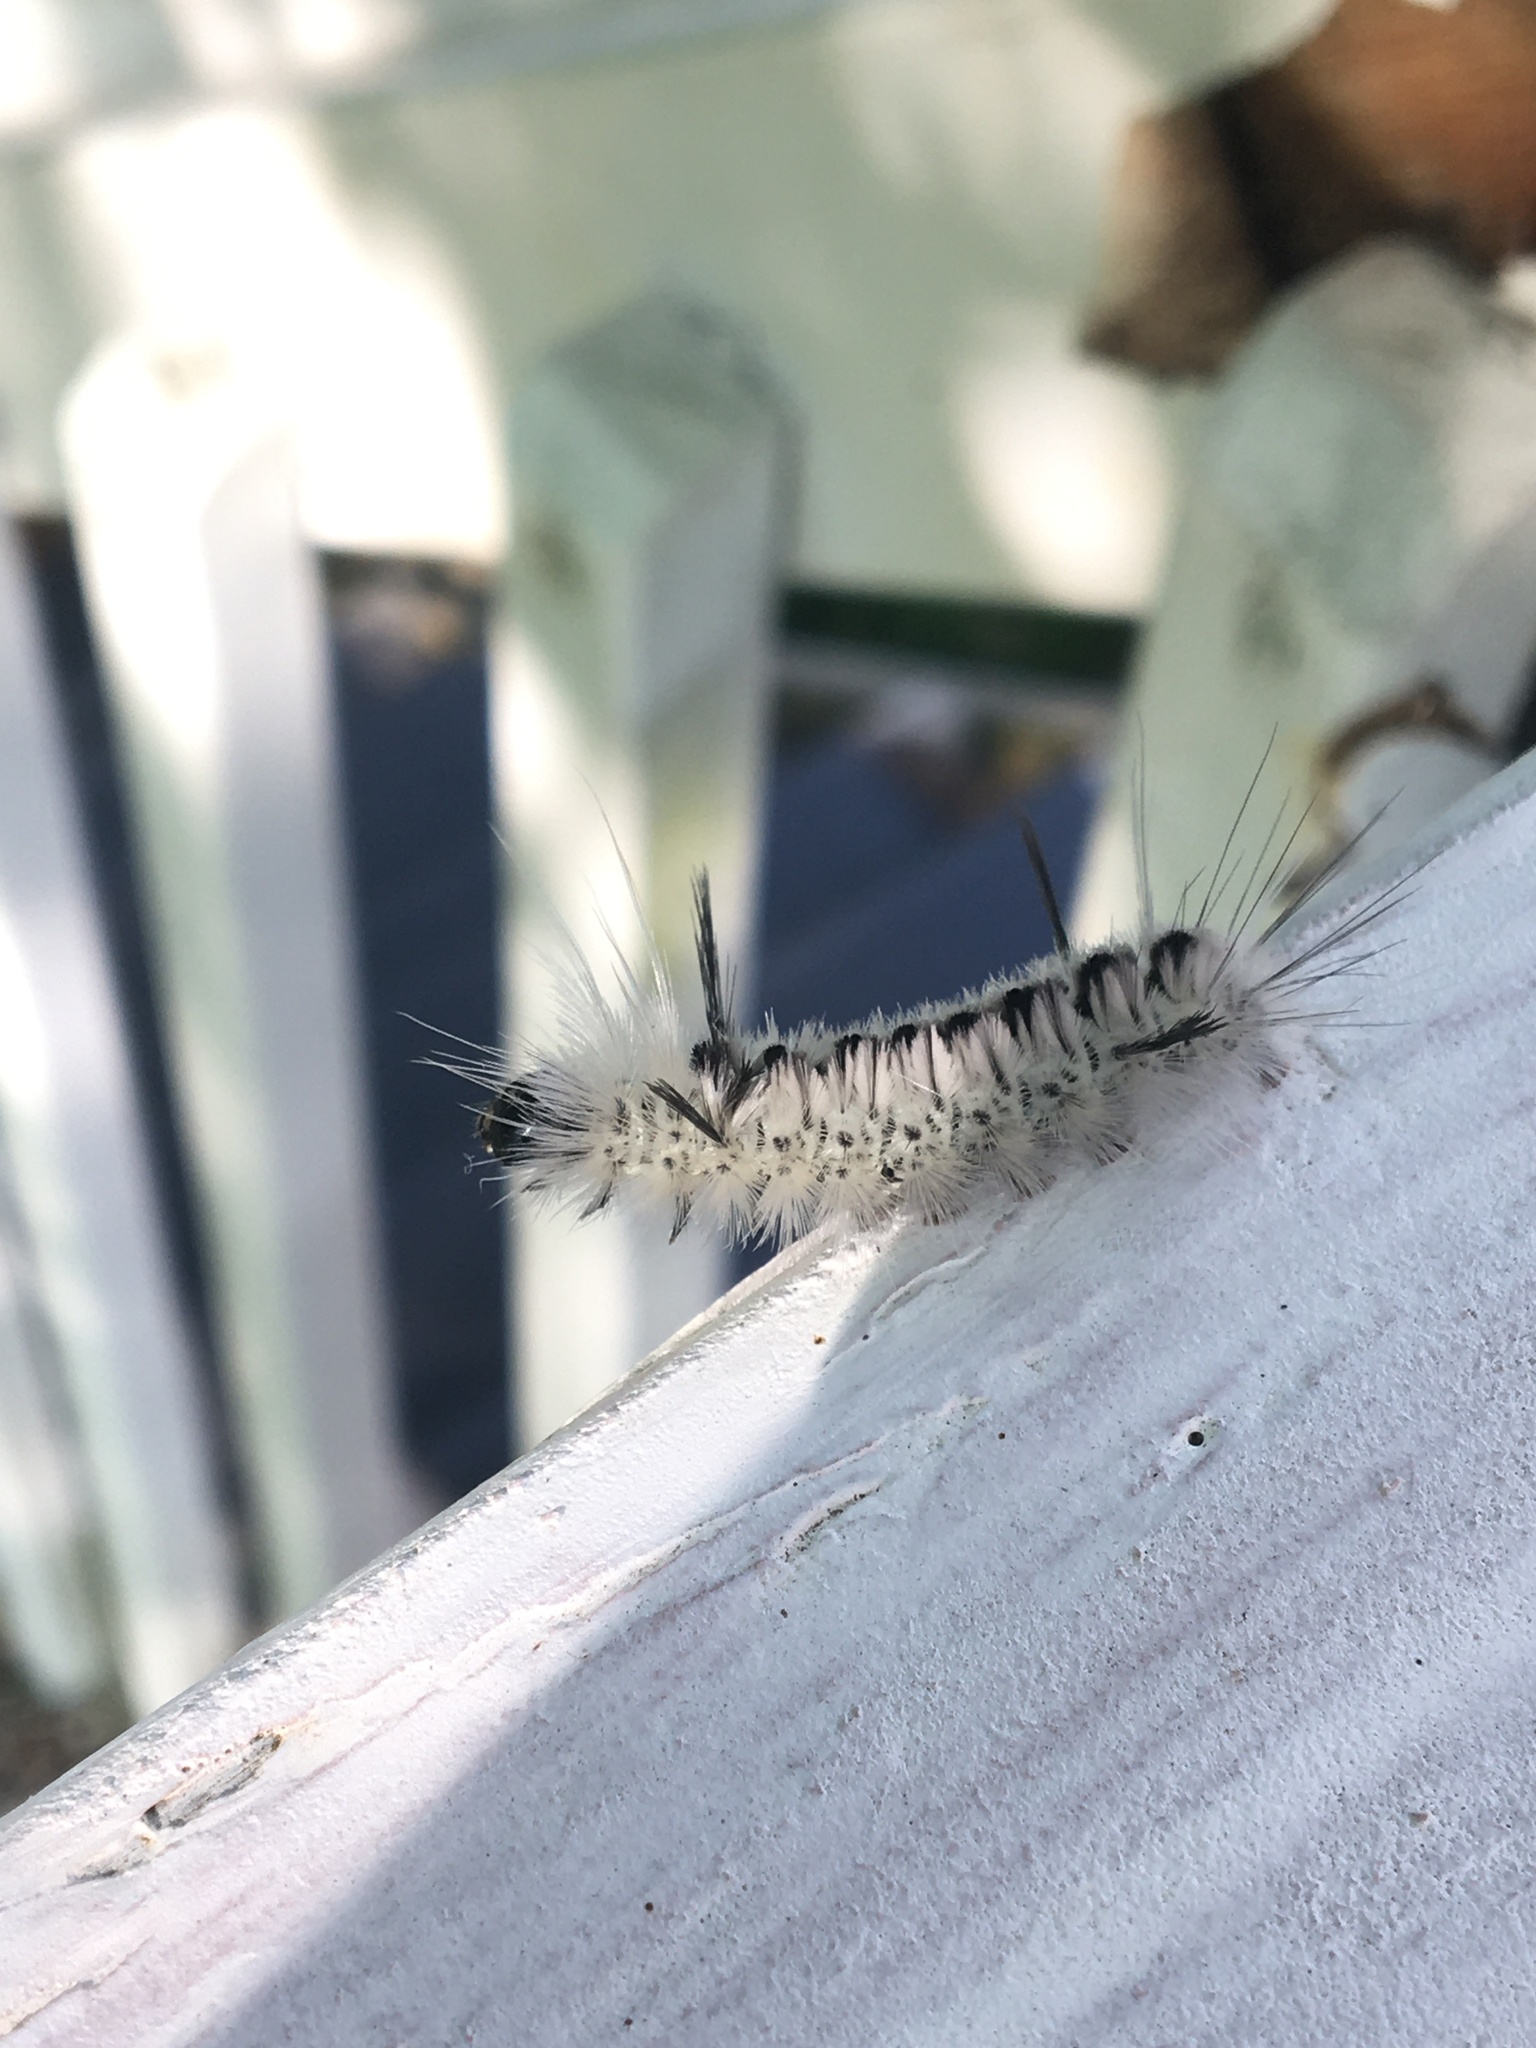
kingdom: Animalia
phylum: Arthropoda
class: Insecta
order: Lepidoptera
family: Erebidae
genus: Lophocampa
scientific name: Lophocampa caryae
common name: Hickory tussock moth
